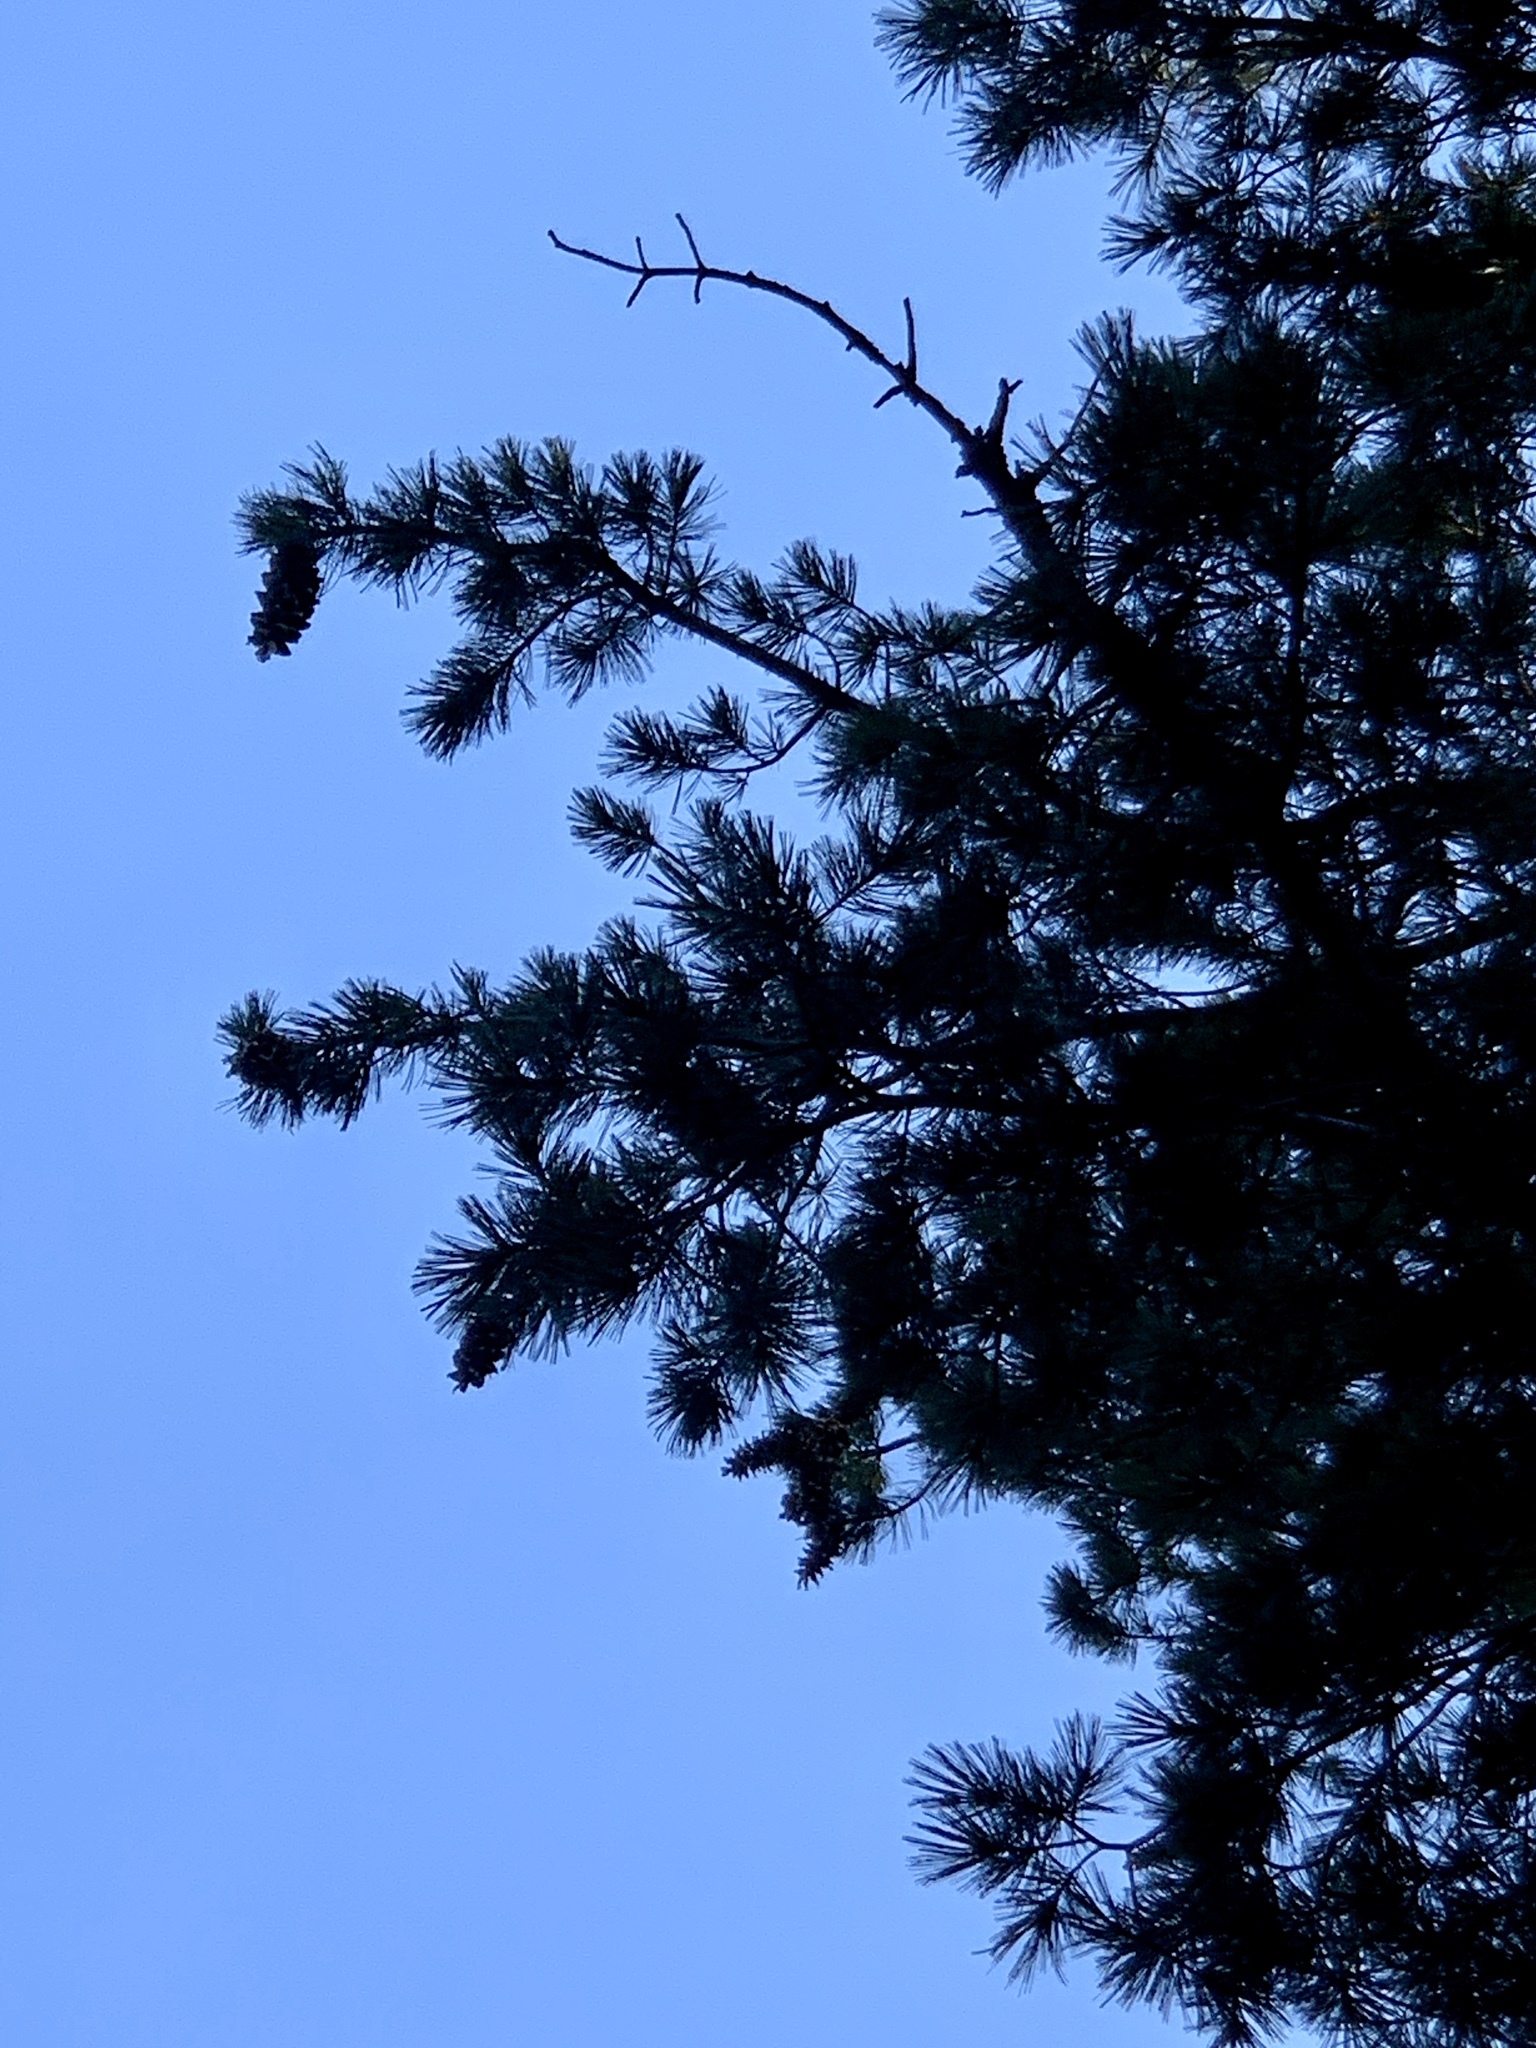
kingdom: Plantae
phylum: Tracheophyta
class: Pinopsida
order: Pinales
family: Pinaceae
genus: Pinus
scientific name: Pinus strobiformis
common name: Southwestern white pine
